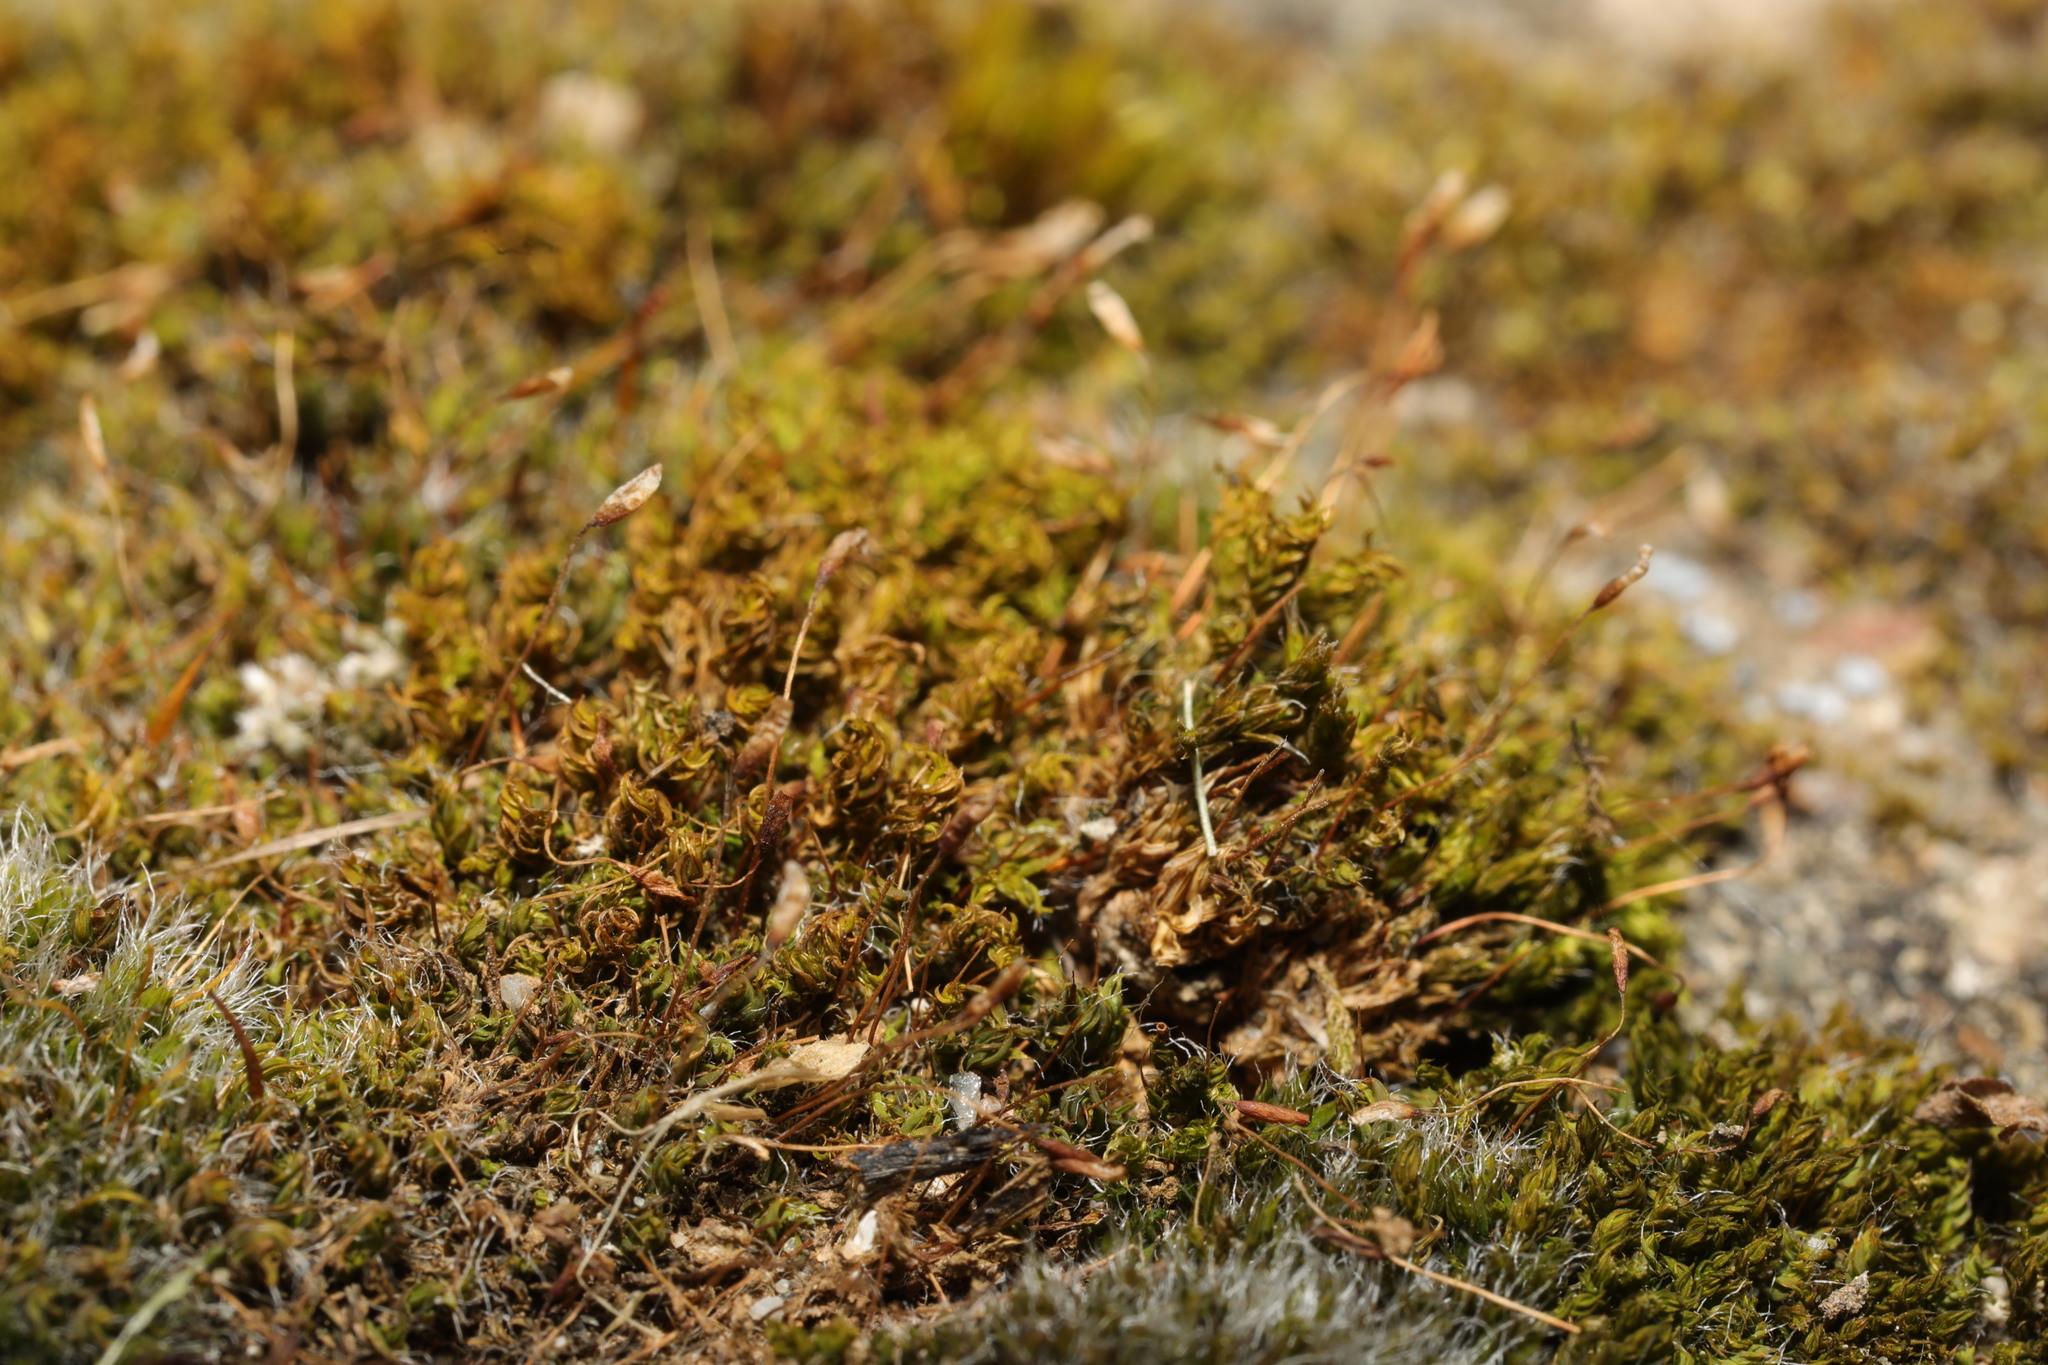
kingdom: Plantae
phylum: Bryophyta
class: Bryopsida
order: Pottiales
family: Pottiaceae
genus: Tortula
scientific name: Tortula muralis
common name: Wall screw-moss
